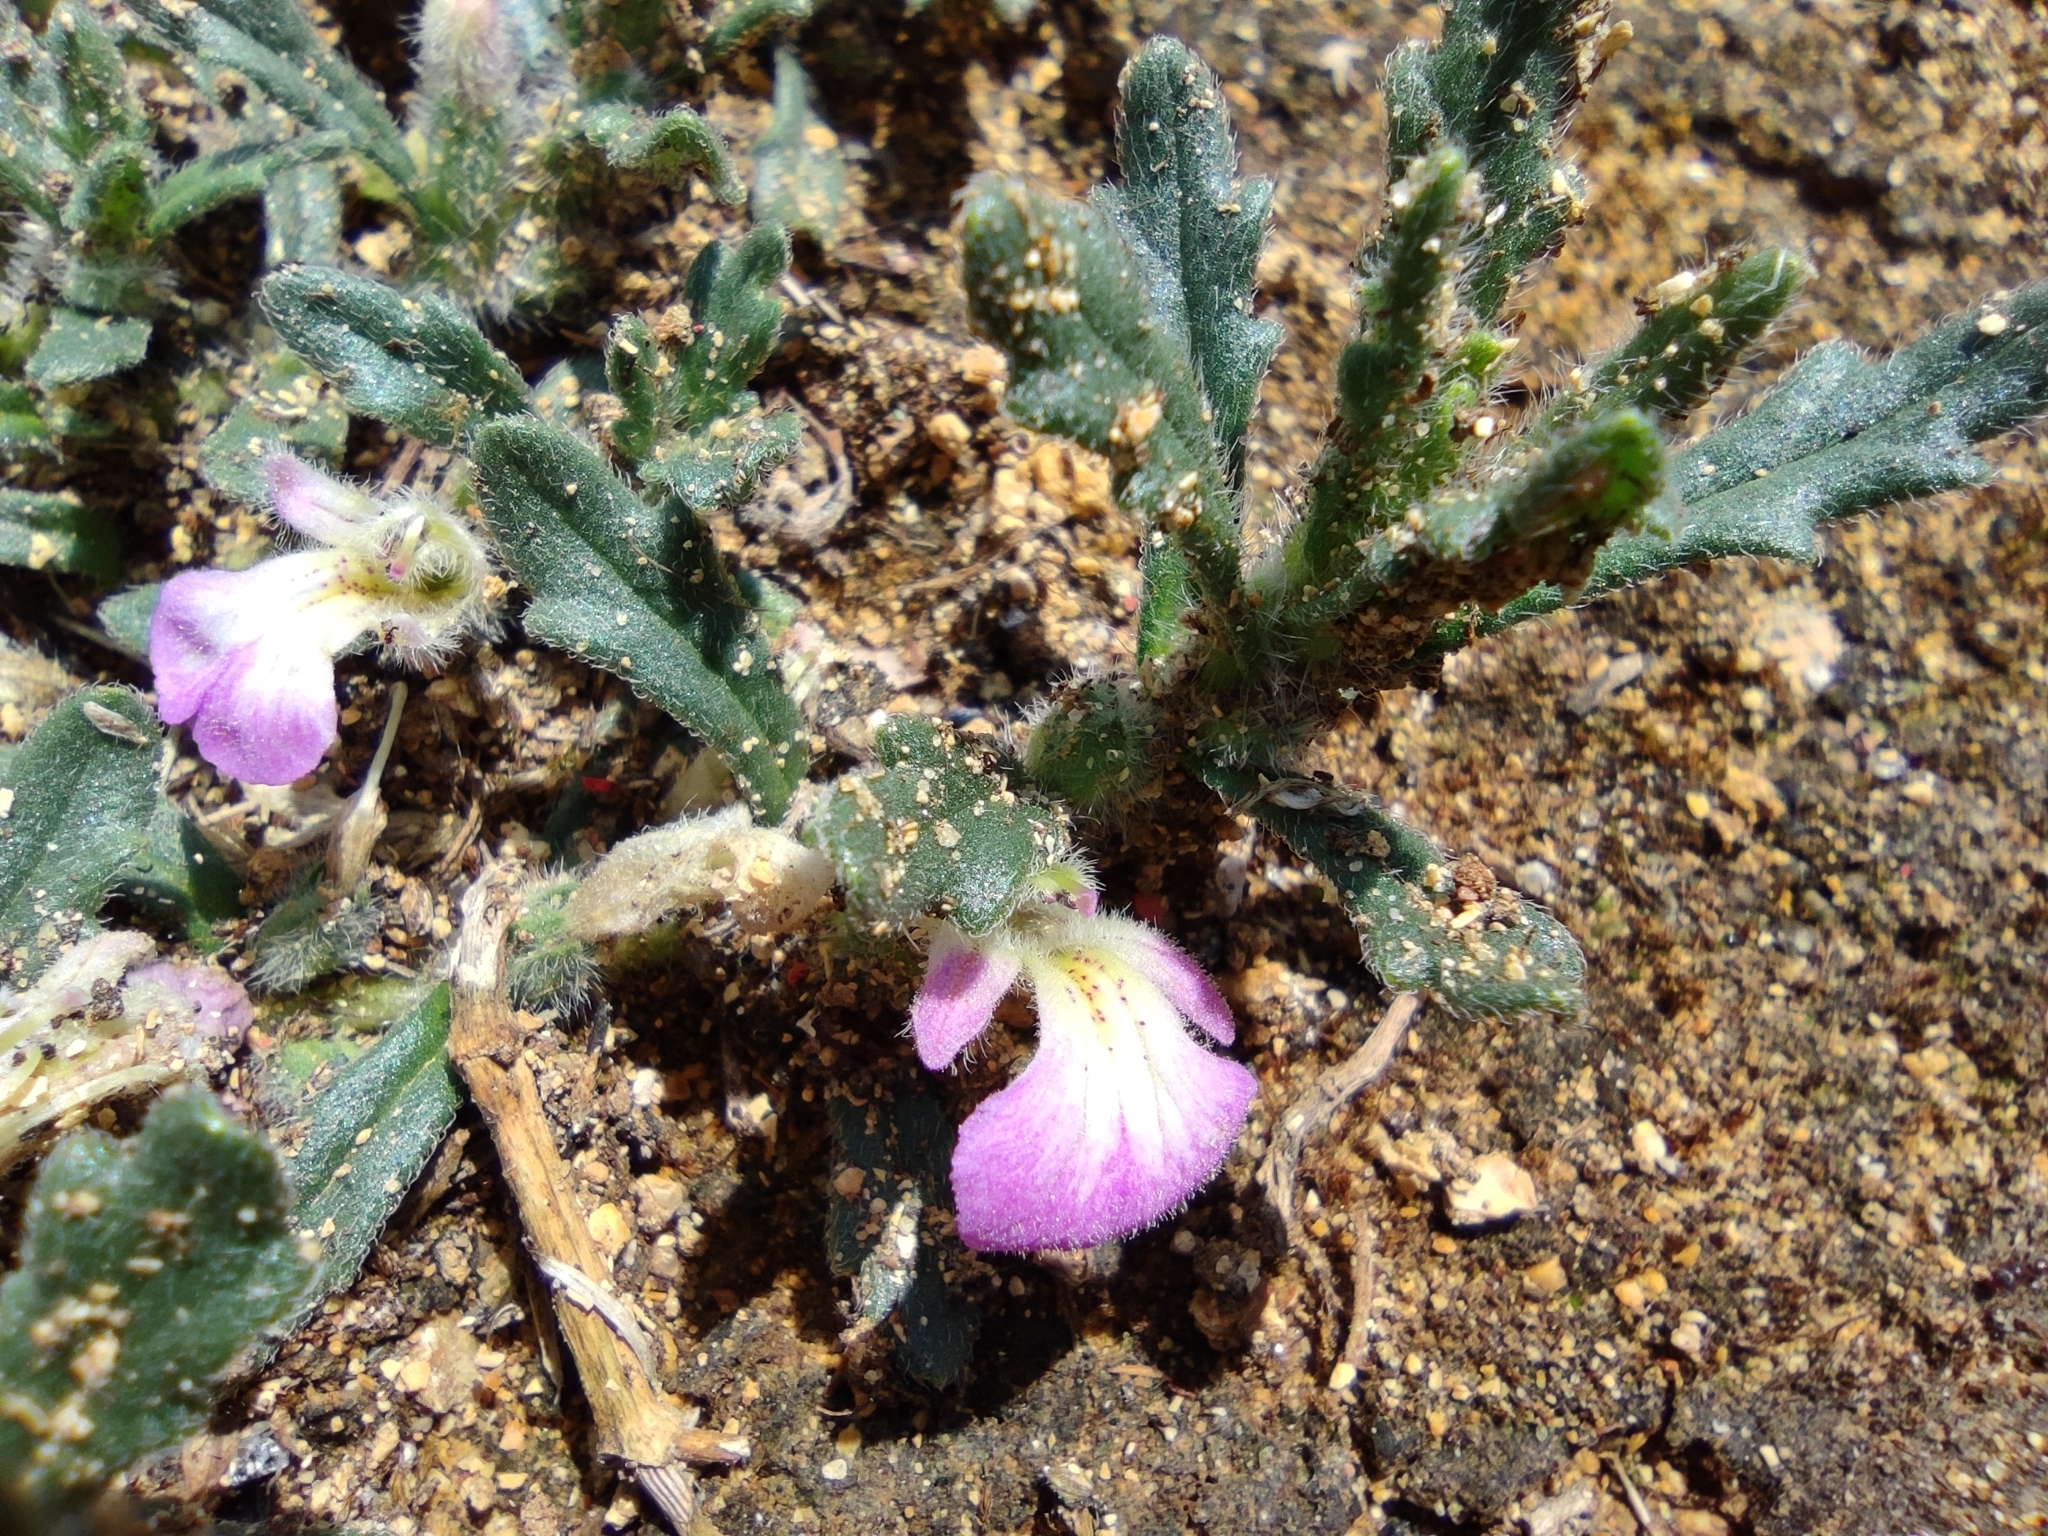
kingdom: Plantae
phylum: Tracheophyta
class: Magnoliopsida
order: Lamiales
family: Lamiaceae
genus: Ajuga
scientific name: Ajuga iva
